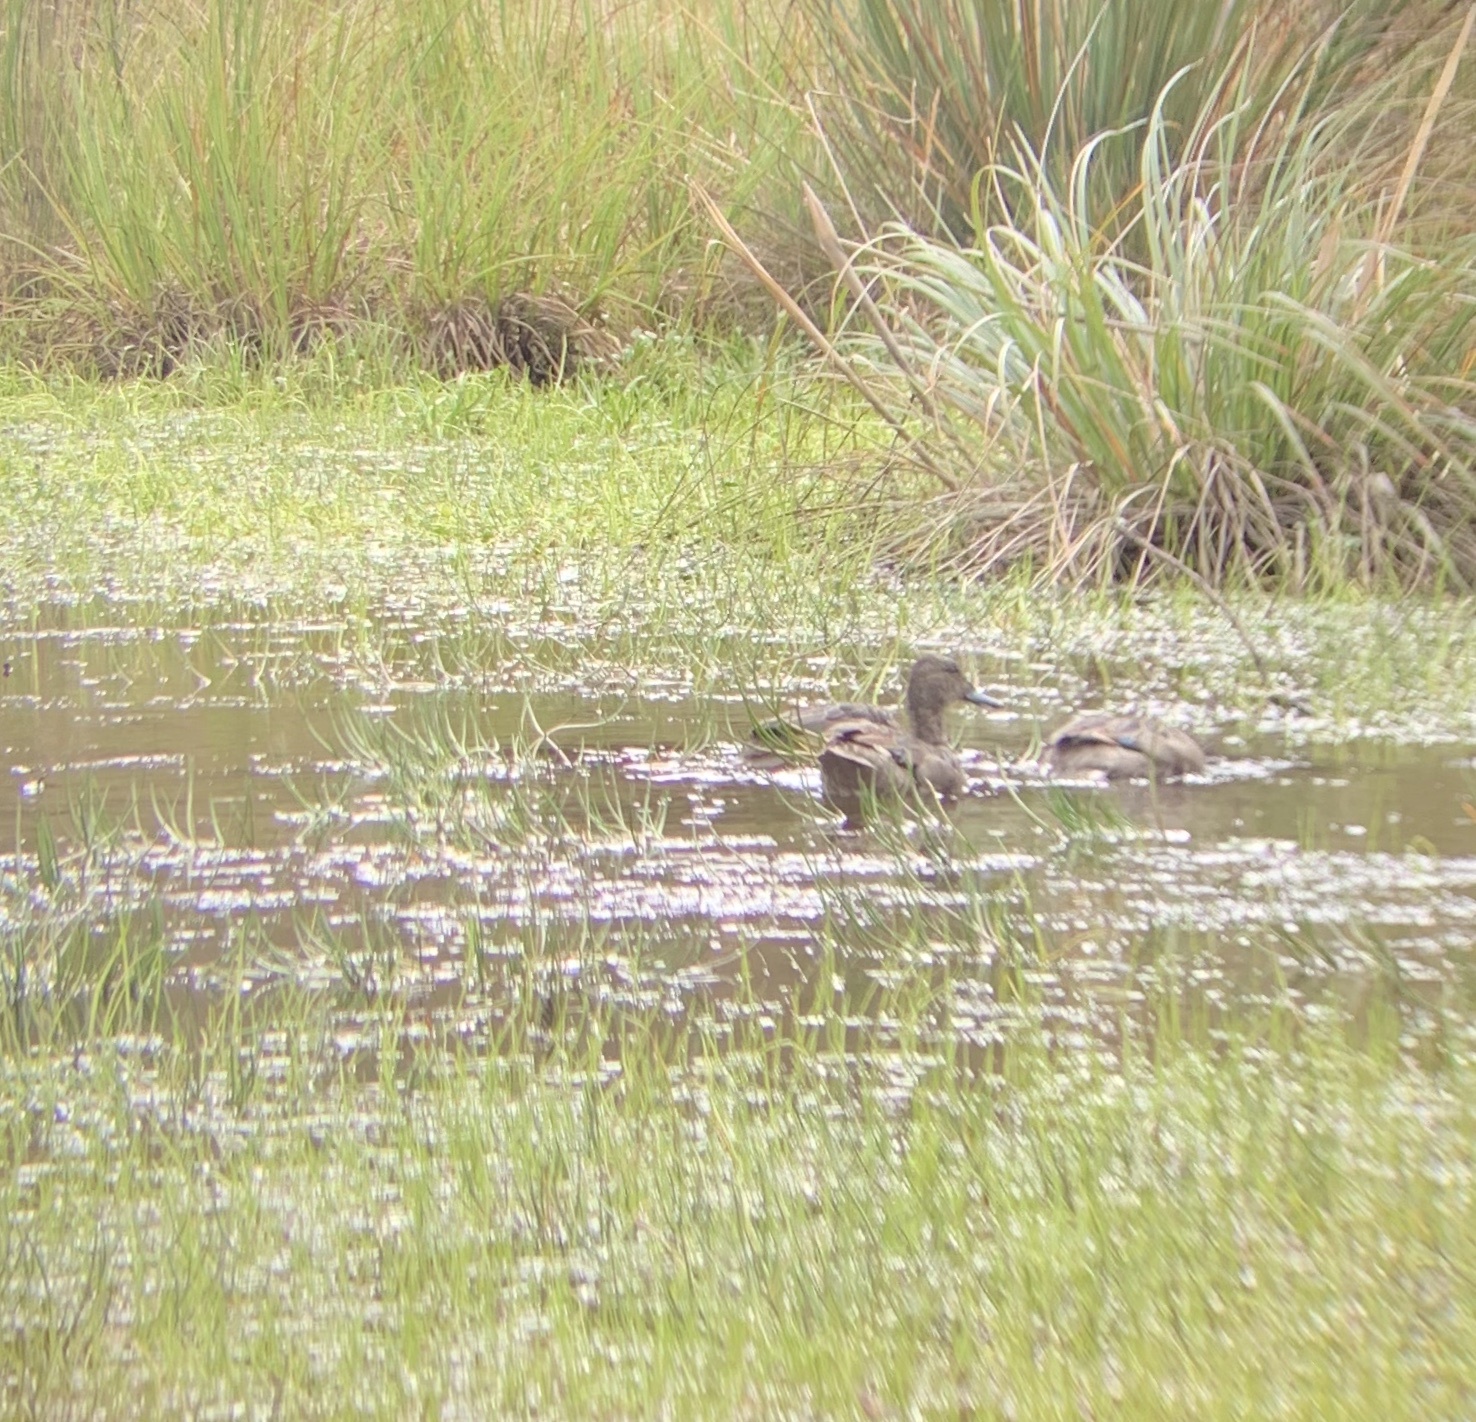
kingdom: Animalia
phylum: Chordata
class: Aves
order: Anseriformes
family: Anatidae
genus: Anas
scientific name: Anas andium
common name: Andean teal
